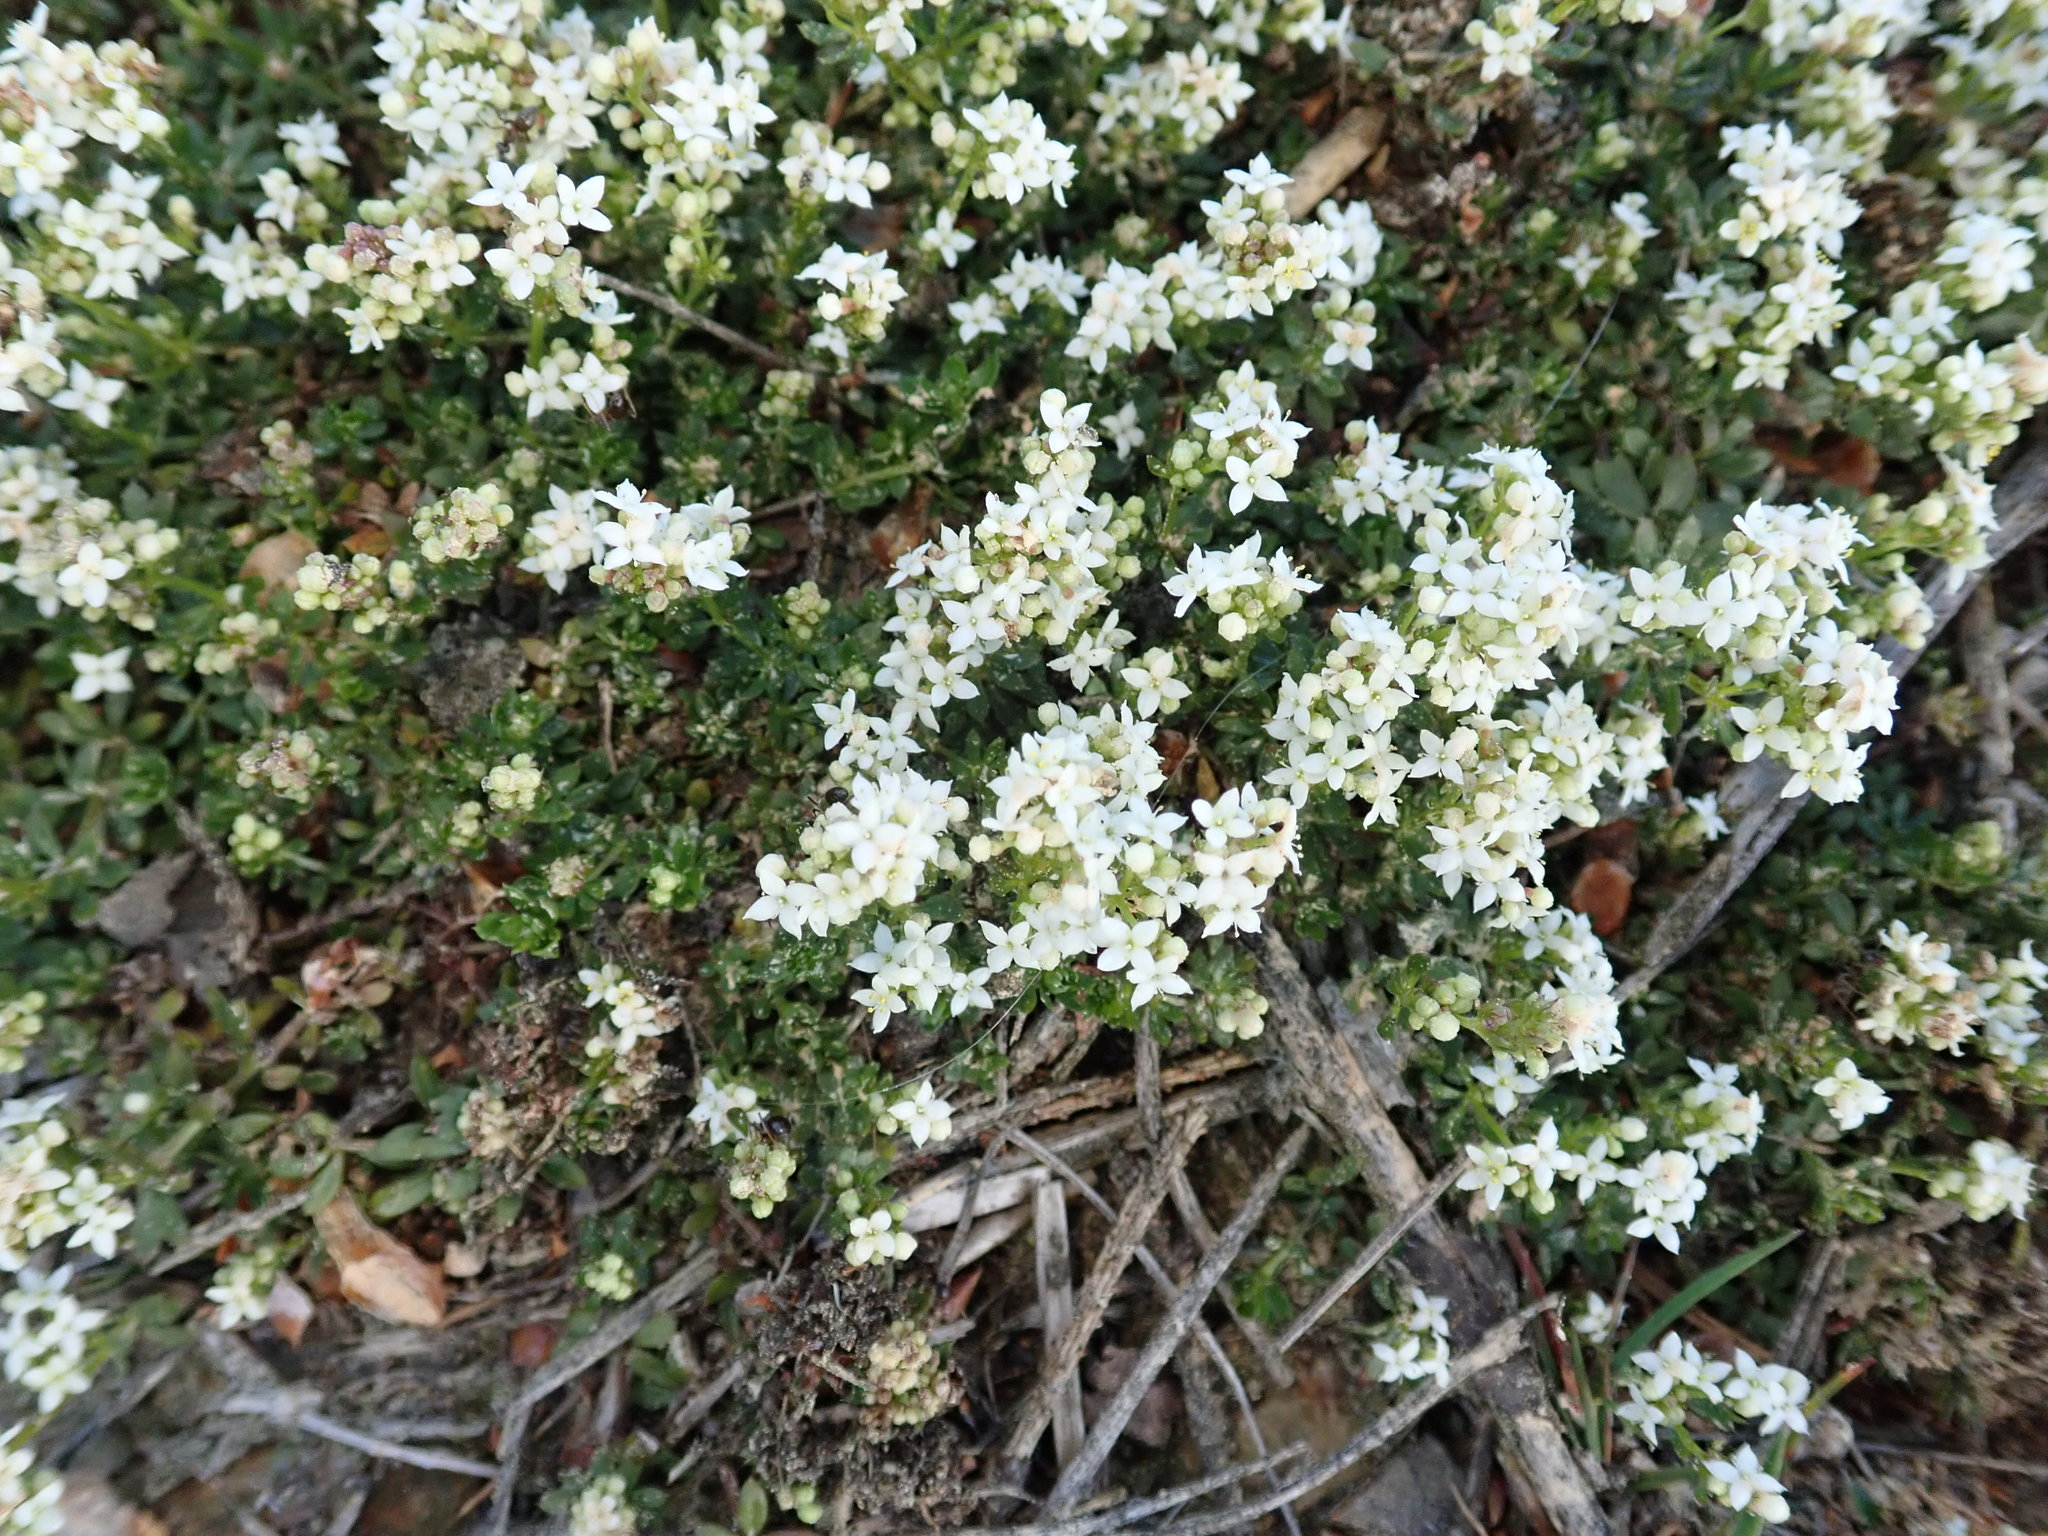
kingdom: Plantae
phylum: Tracheophyta
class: Magnoliopsida
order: Gentianales
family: Rubiaceae
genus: Galium
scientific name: Galium saxatile
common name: Heath bedstraw
